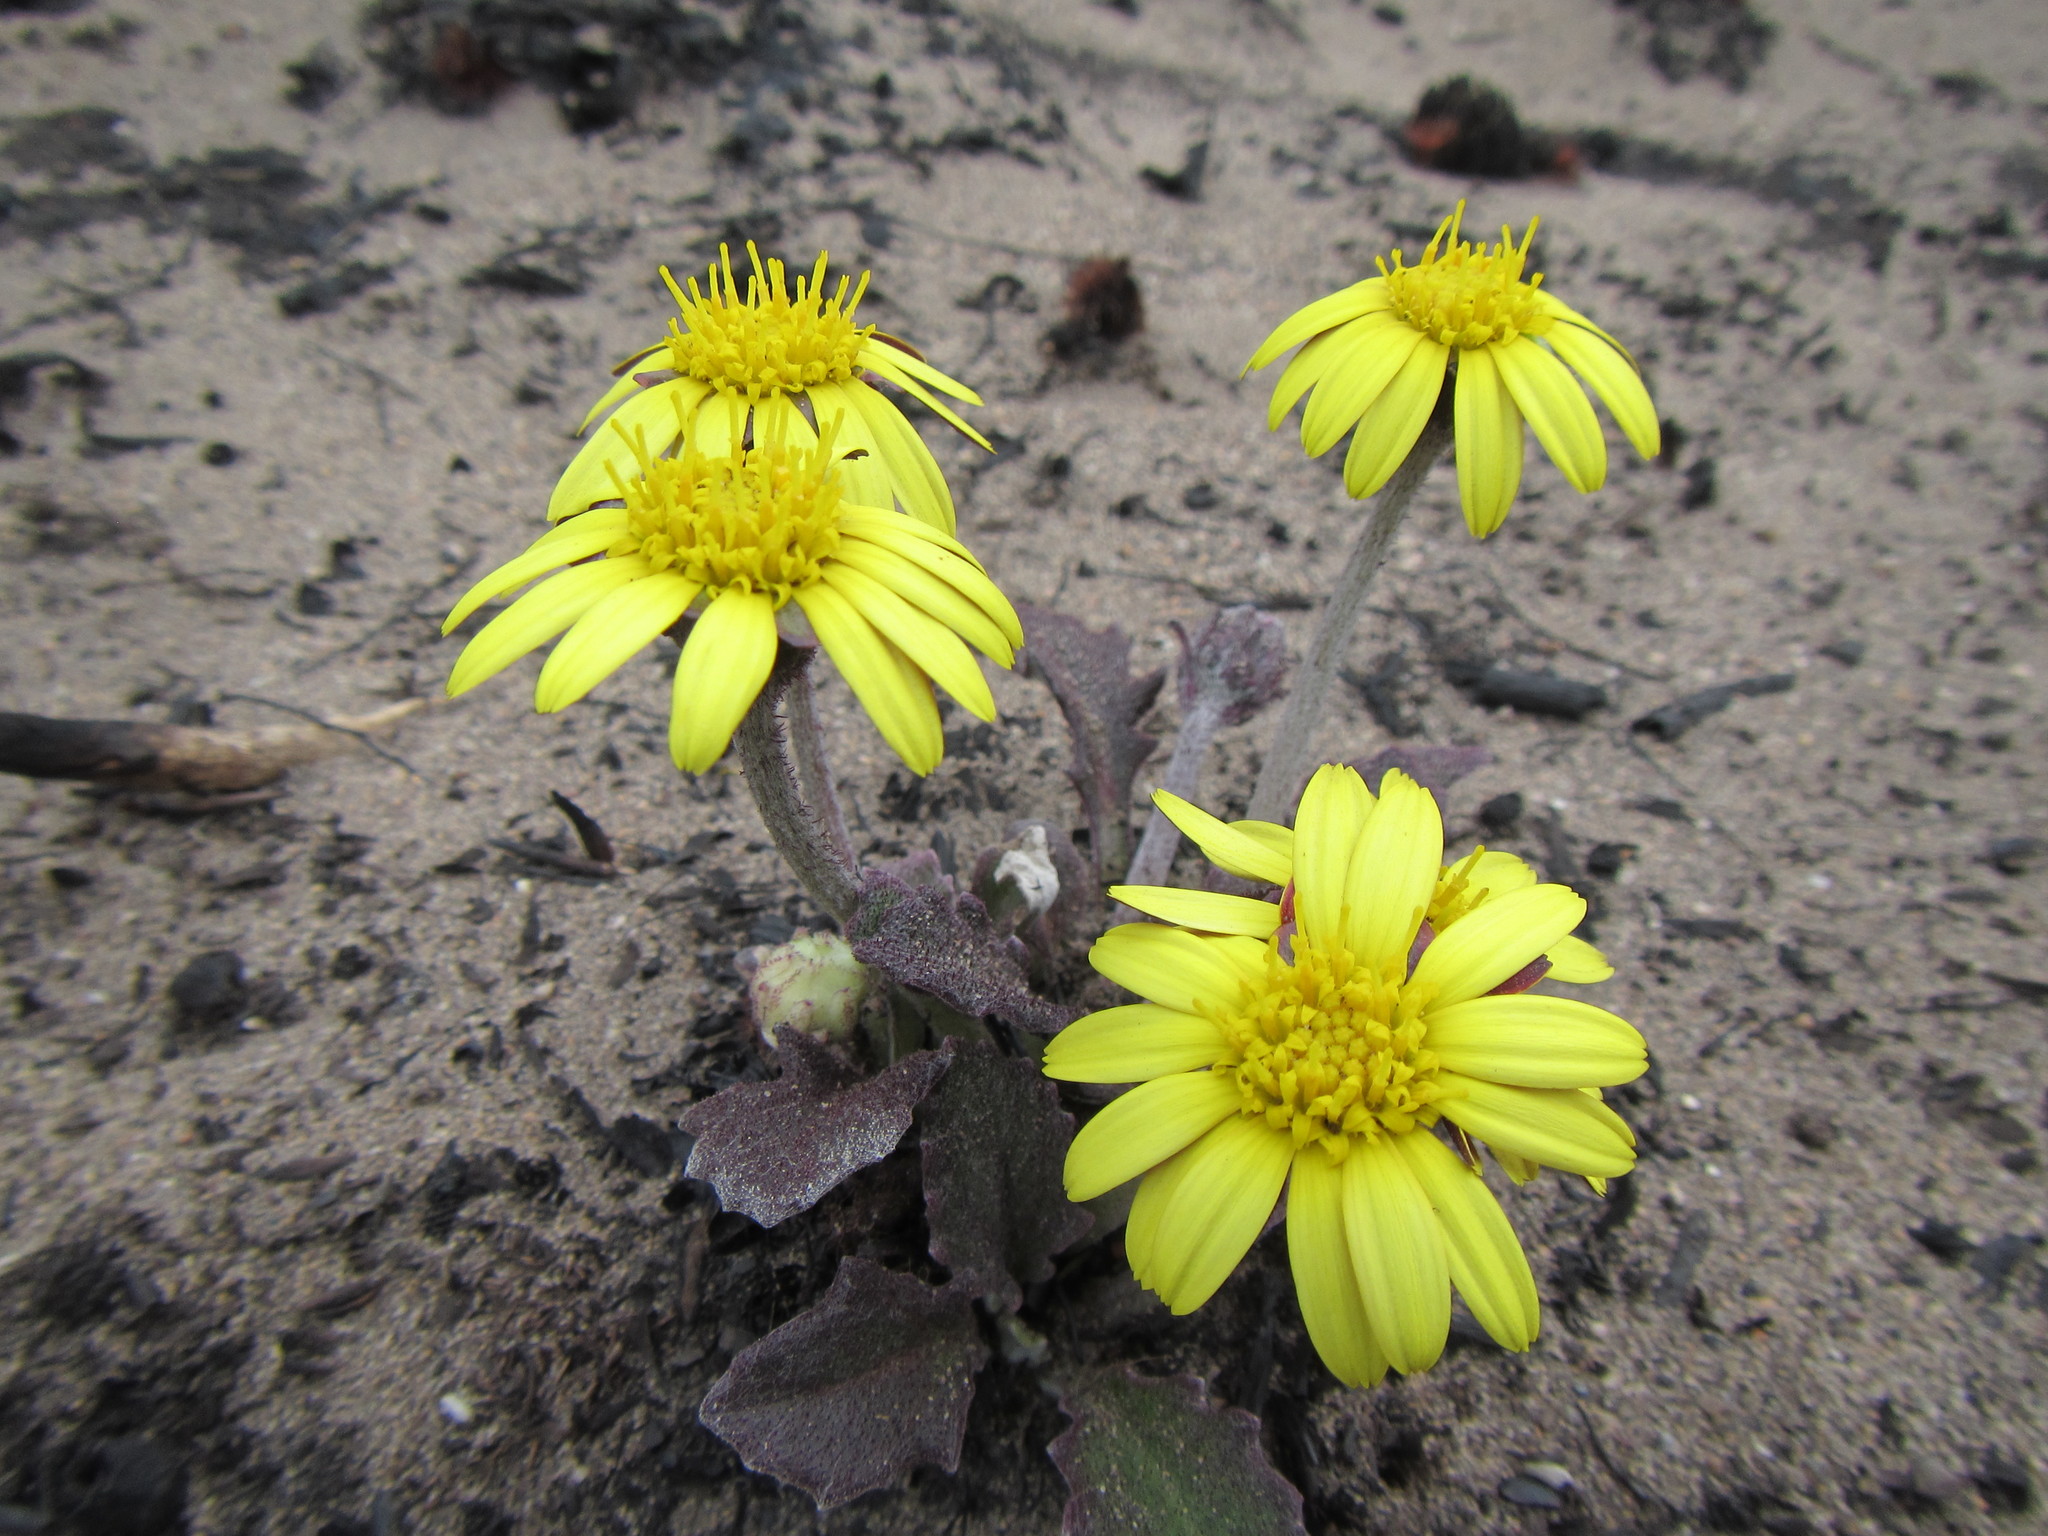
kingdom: Plantae
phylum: Tracheophyta
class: Magnoliopsida
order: Asterales
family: Asteraceae
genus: Haplocarpha
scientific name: Haplocarpha lanata
